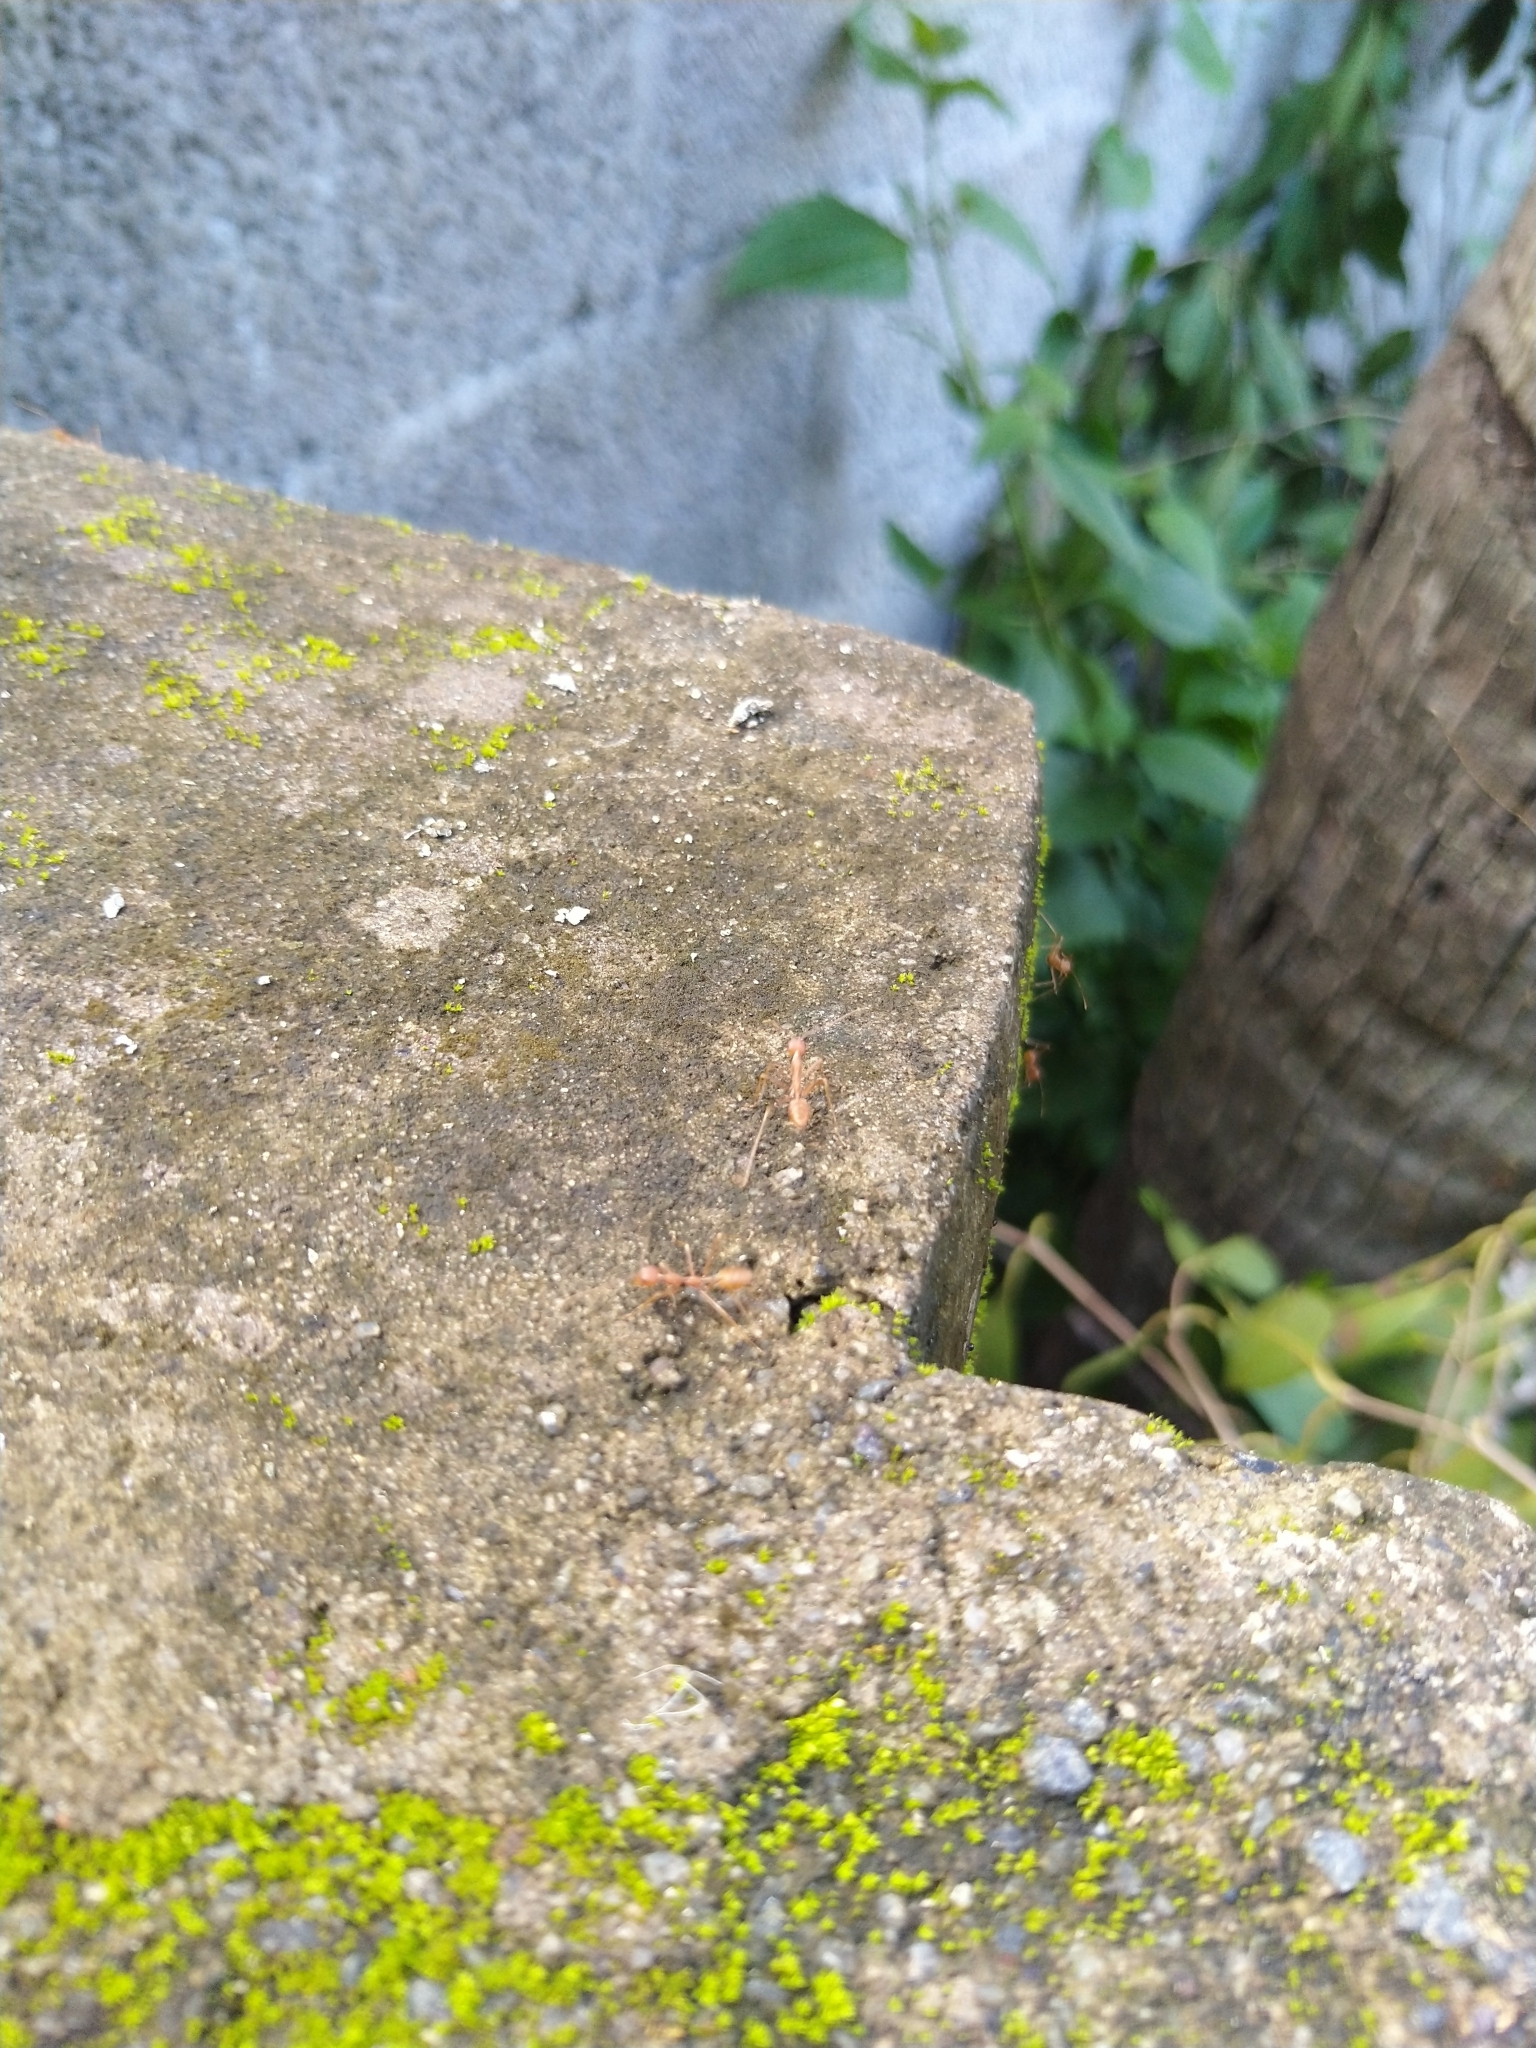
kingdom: Animalia
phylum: Arthropoda
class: Insecta
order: Hymenoptera
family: Formicidae
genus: Oecophylla
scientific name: Oecophylla smaragdina
